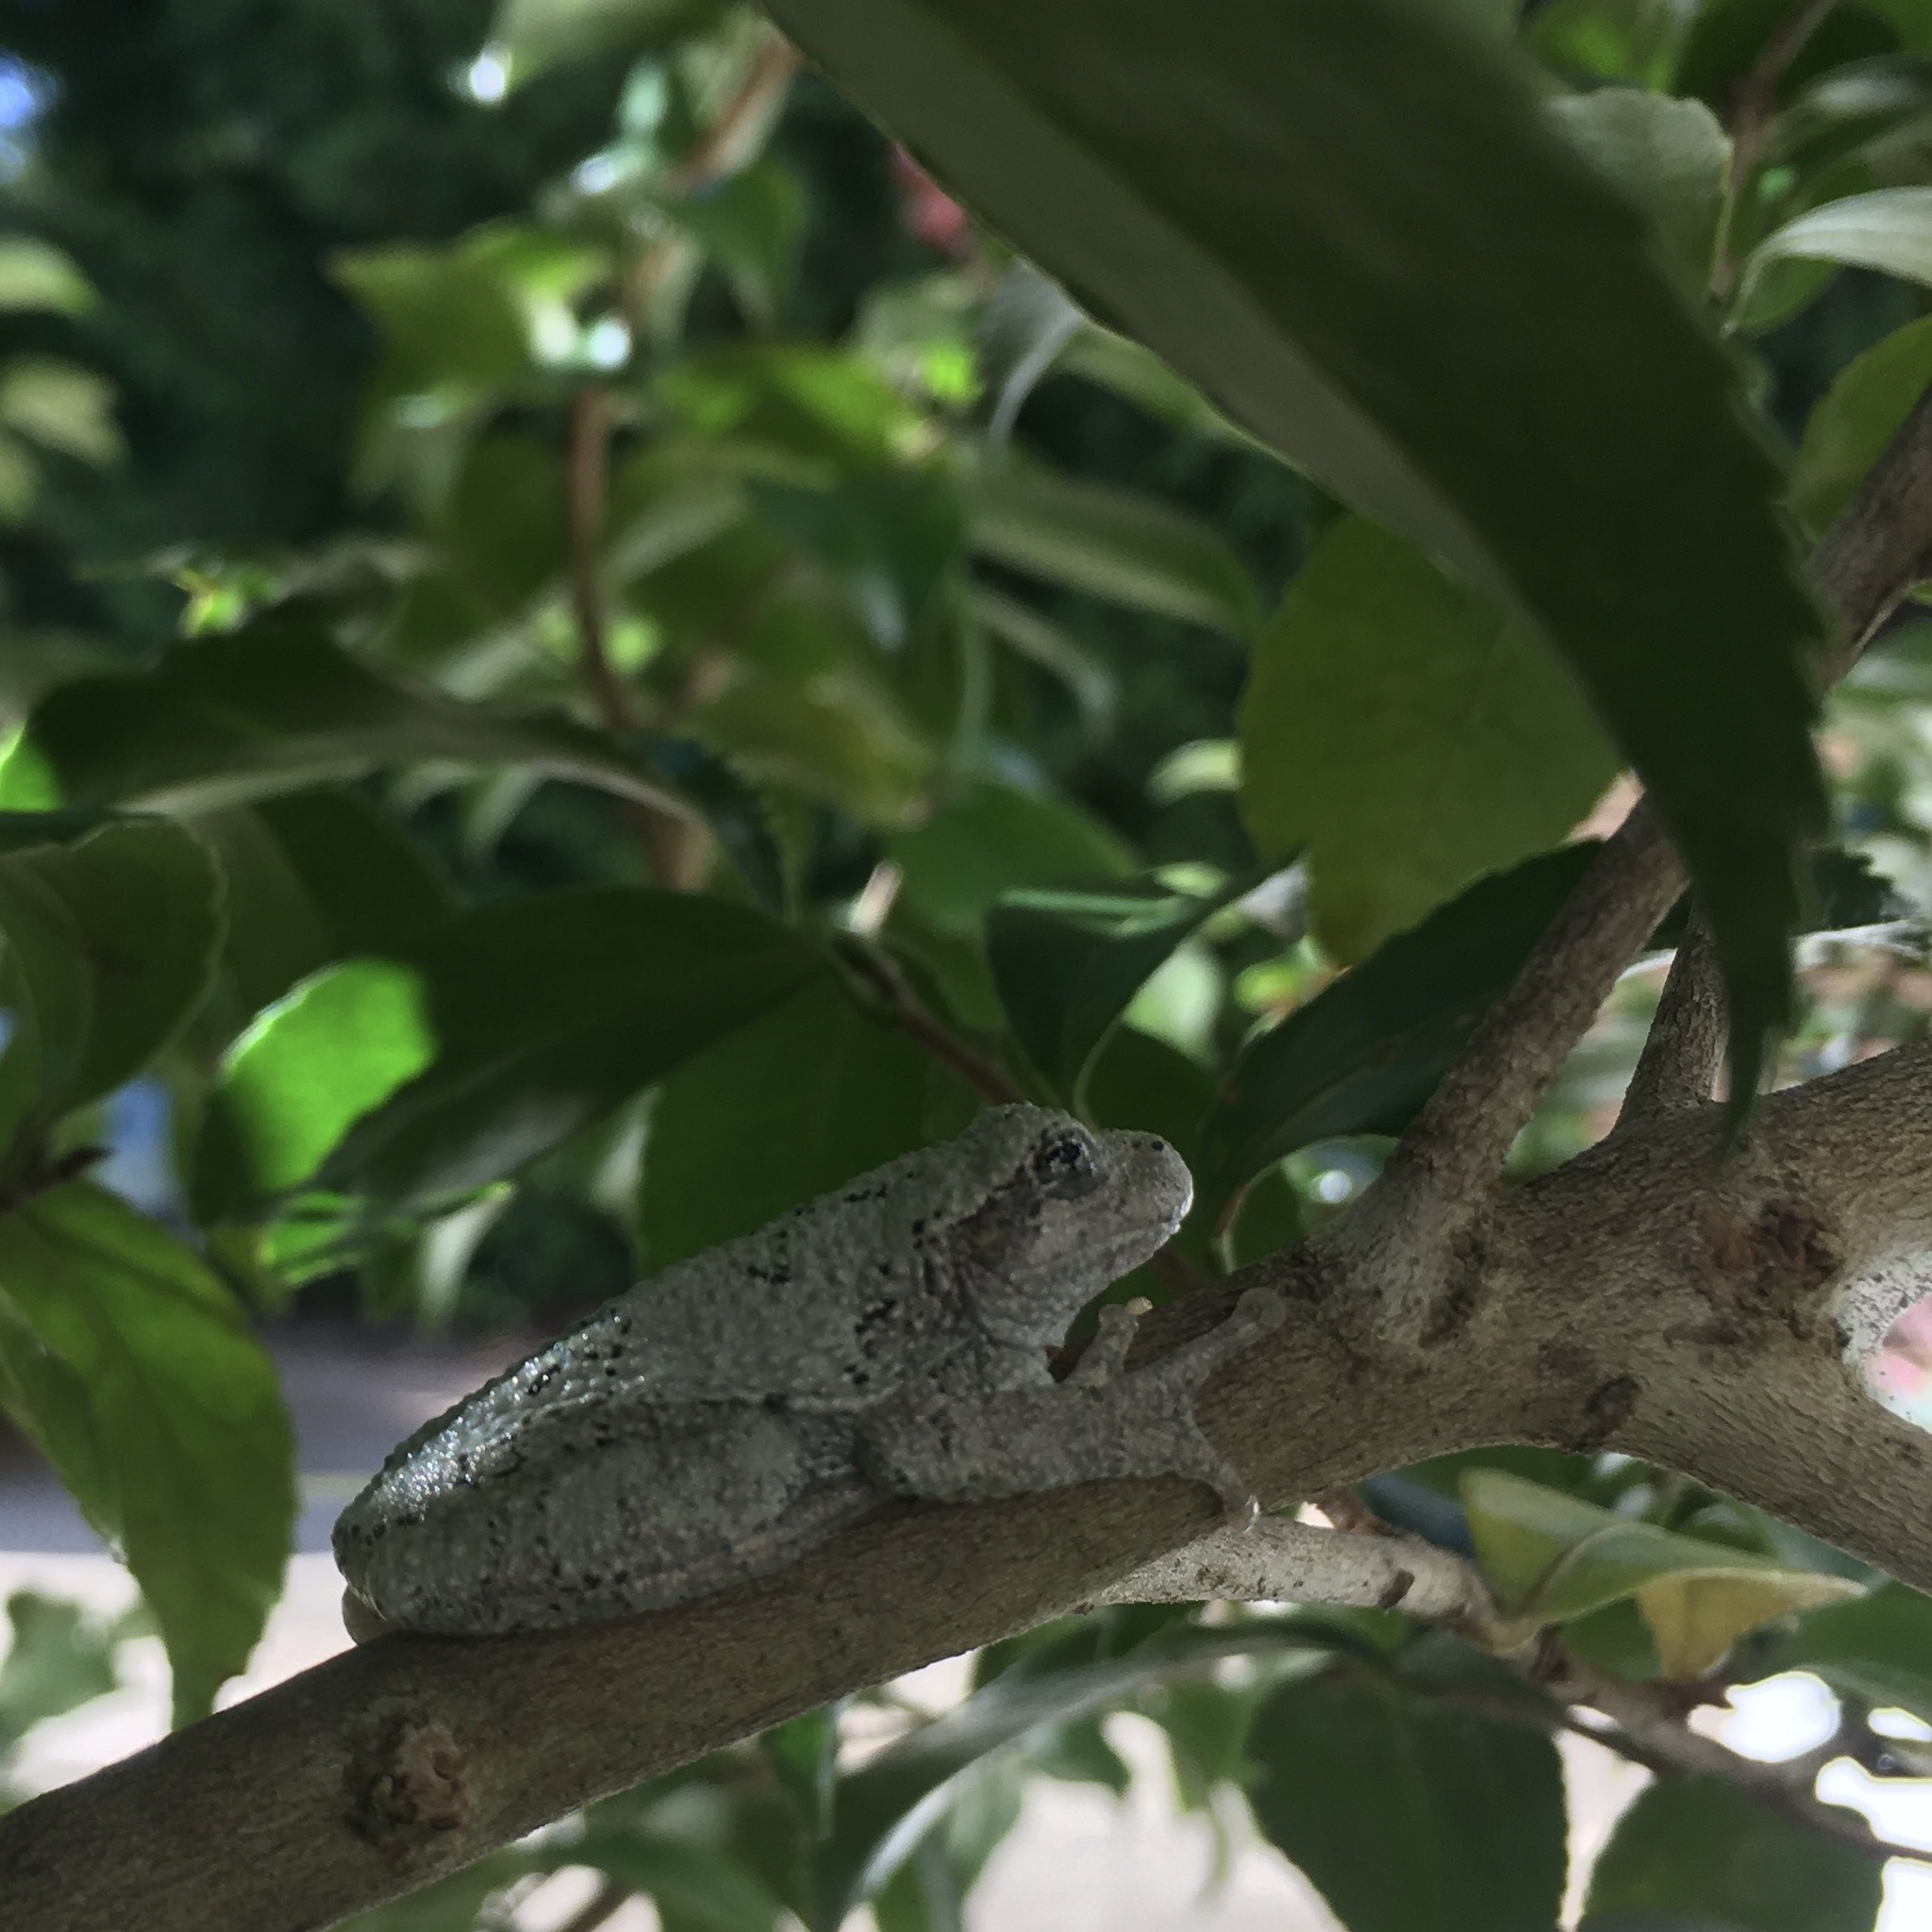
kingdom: Animalia
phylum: Chordata
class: Amphibia
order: Anura
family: Hylidae
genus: Dryophytes
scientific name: Dryophytes chrysoscelis
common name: Cope's gray treefrog
